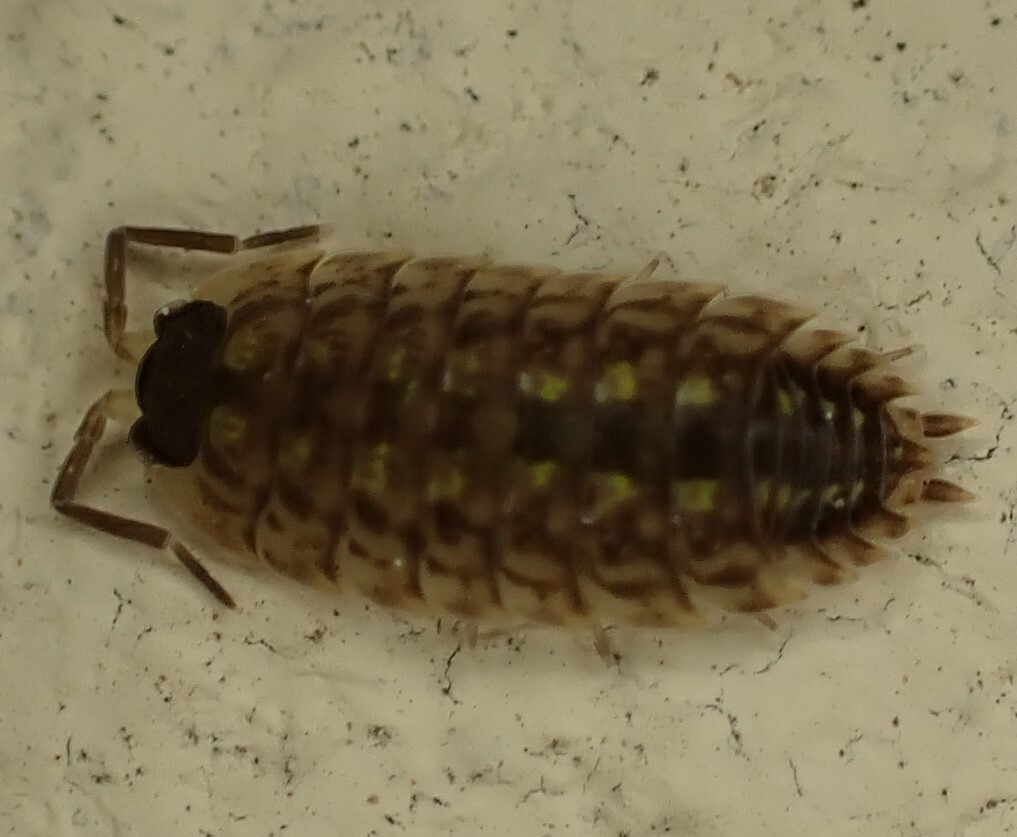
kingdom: Animalia
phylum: Arthropoda
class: Malacostraca
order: Isopoda
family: Porcellionidae
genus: Porcellio
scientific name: Porcellio spinicornis
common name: Painted woodlouse
